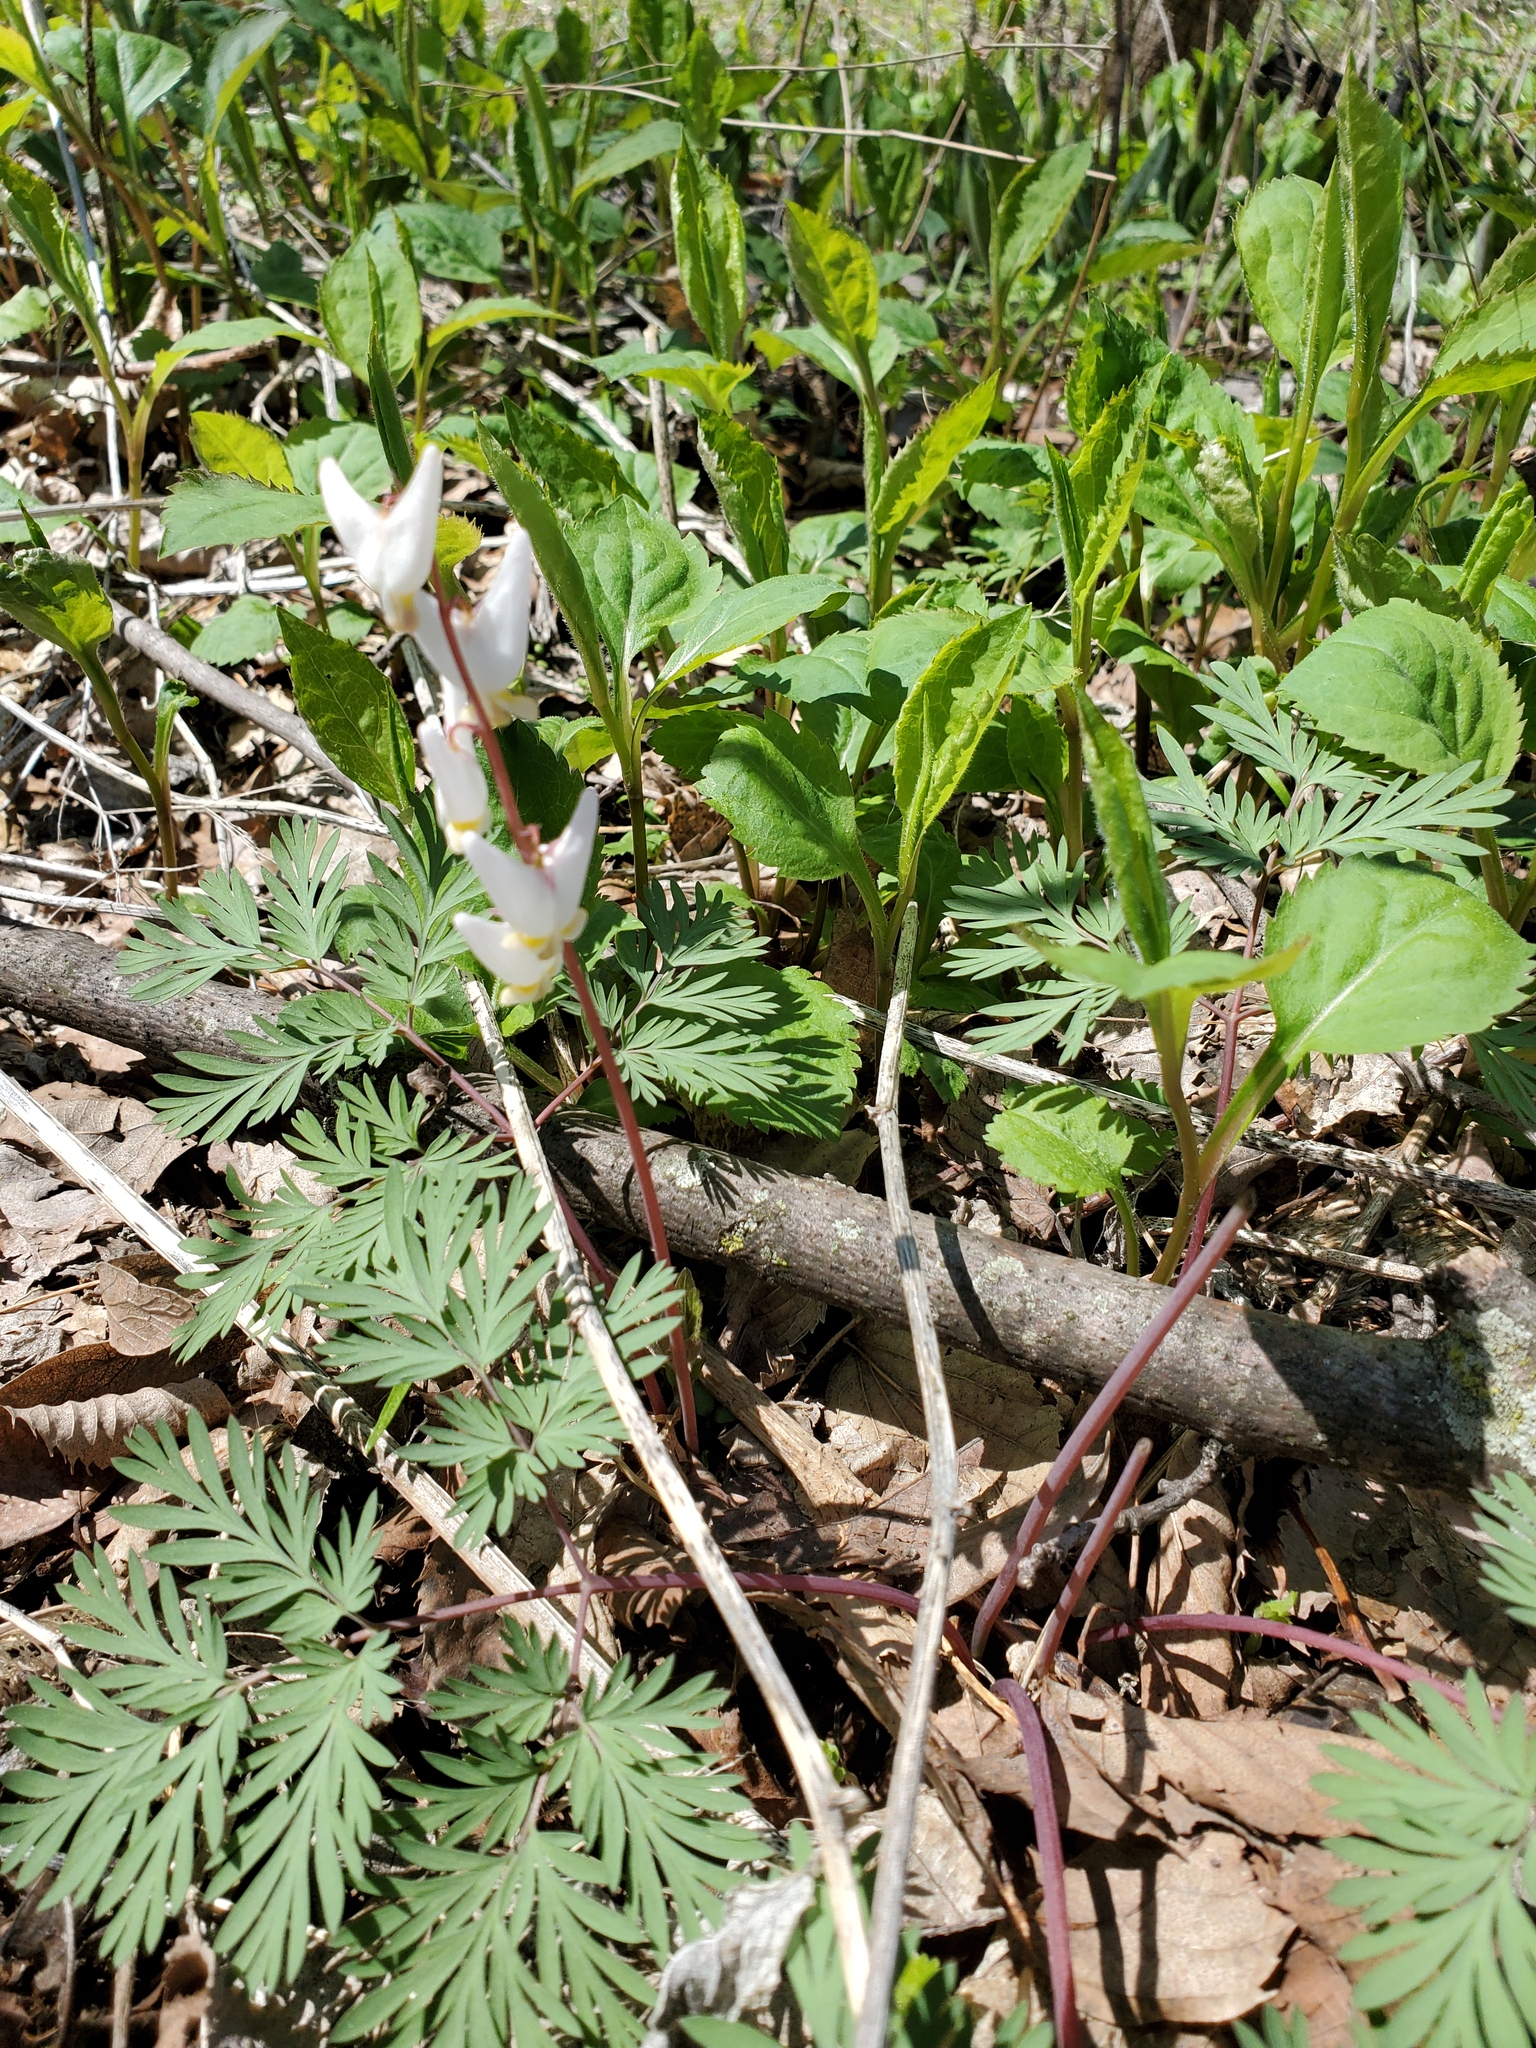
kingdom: Plantae
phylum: Tracheophyta
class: Magnoliopsida
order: Ranunculales
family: Papaveraceae
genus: Dicentra
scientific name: Dicentra cucullaria
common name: Dutchman's breeches
